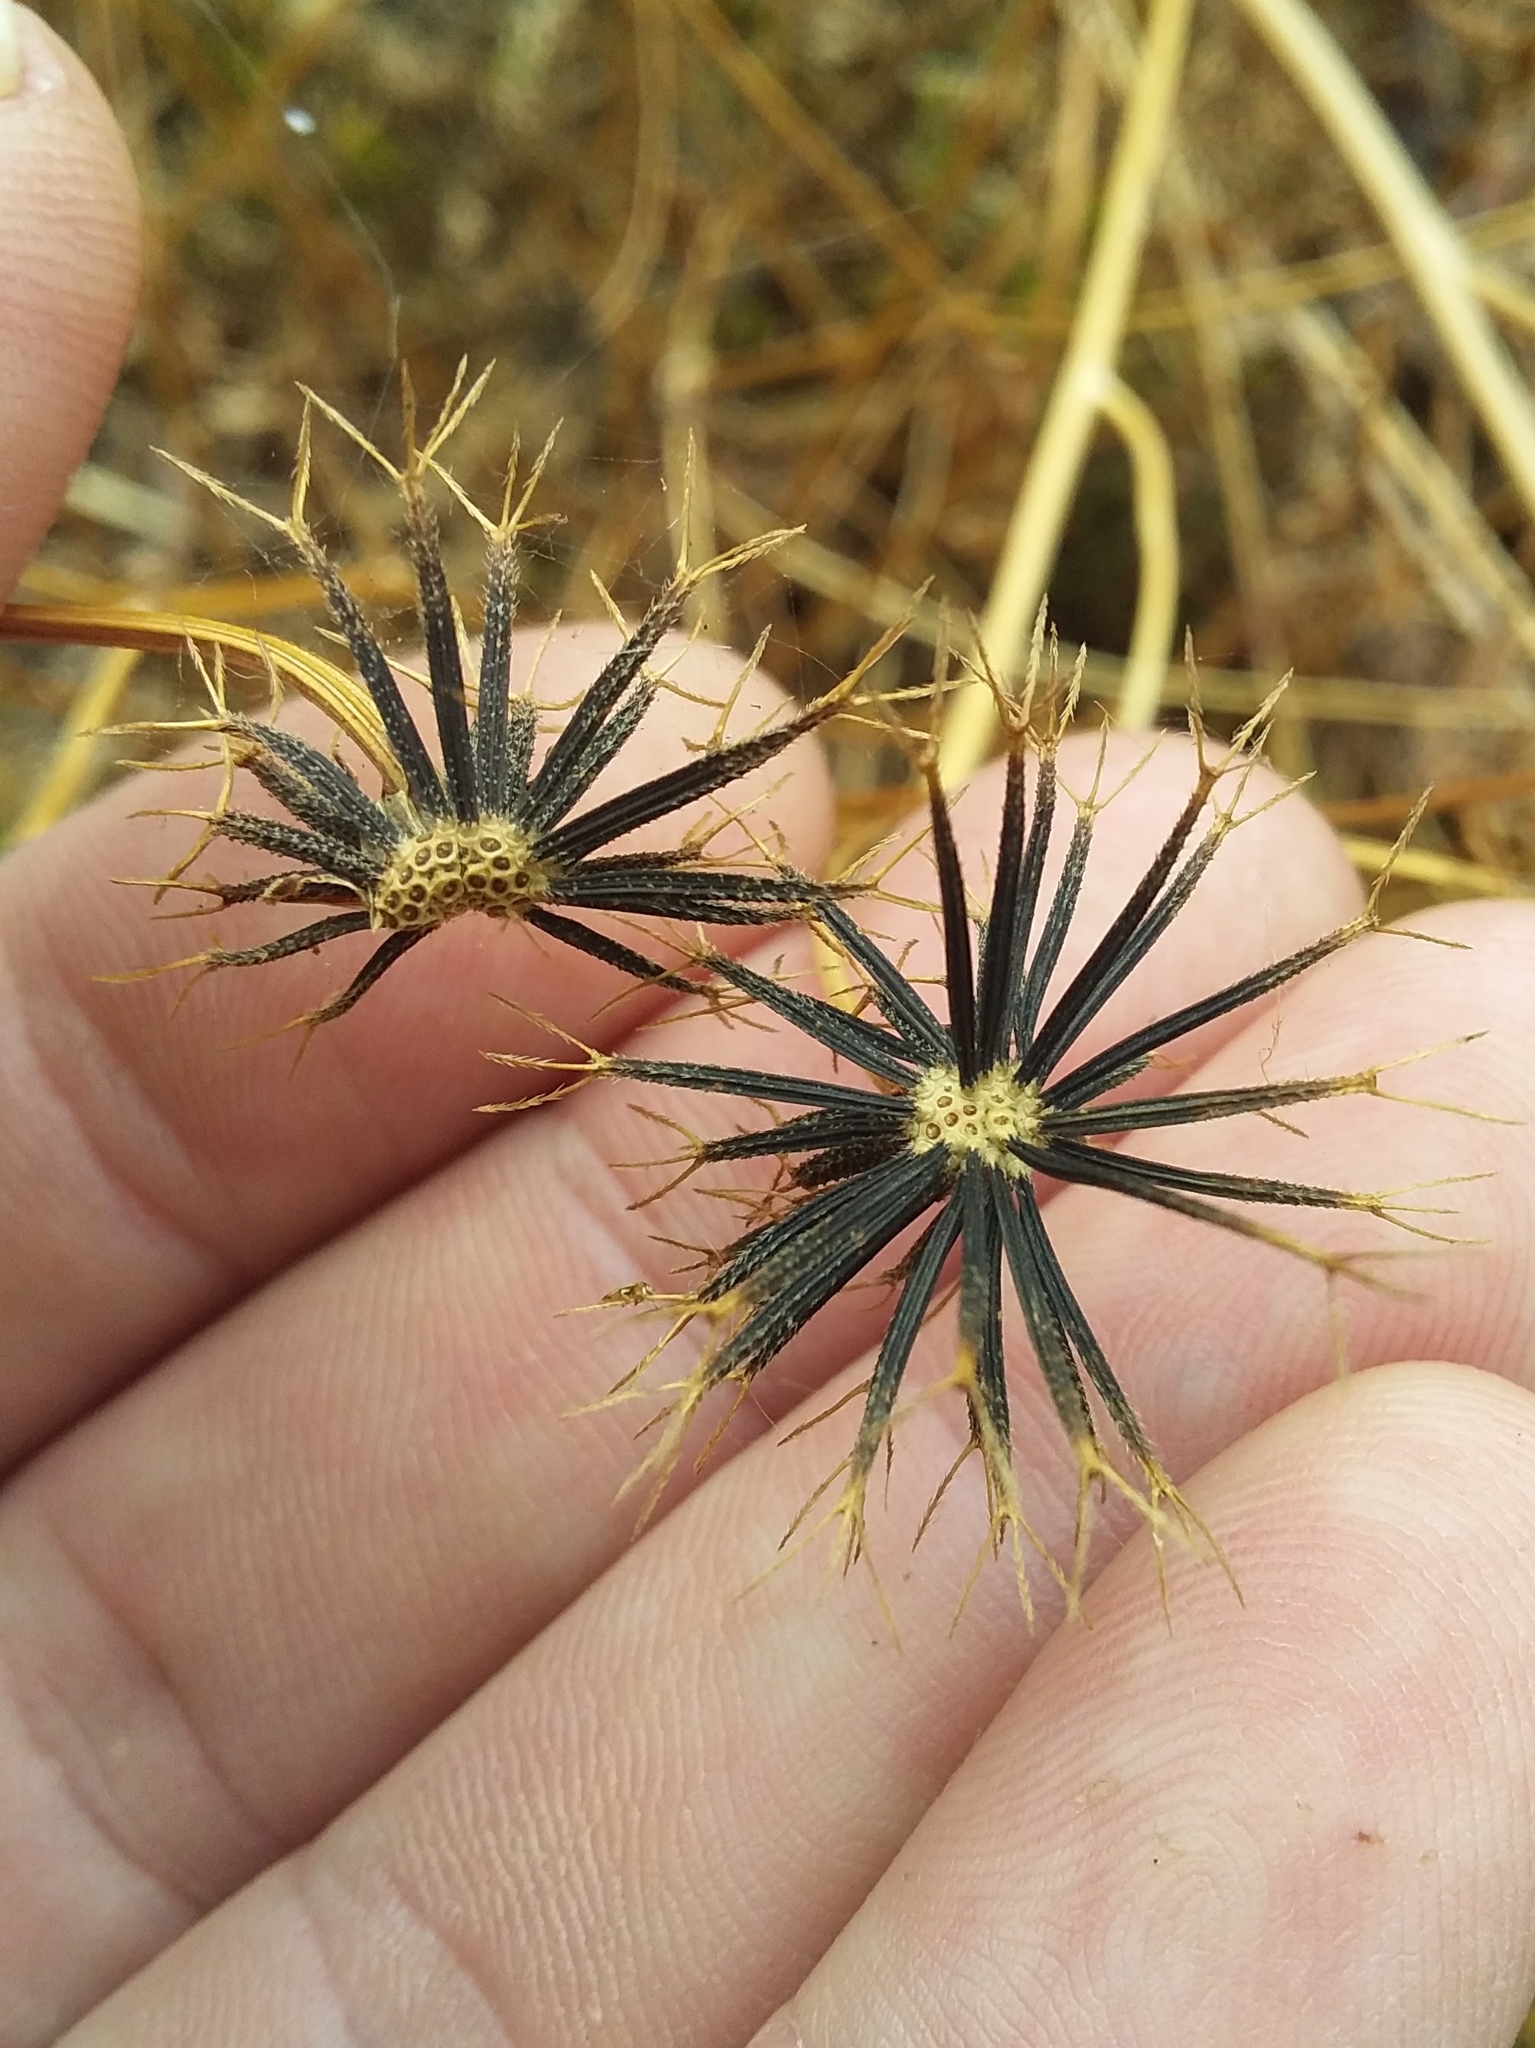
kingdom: Plantae
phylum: Tracheophyta
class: Magnoliopsida
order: Asterales
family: Asteraceae
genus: Bidens
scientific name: Bidens pilosa
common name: Black-jack
